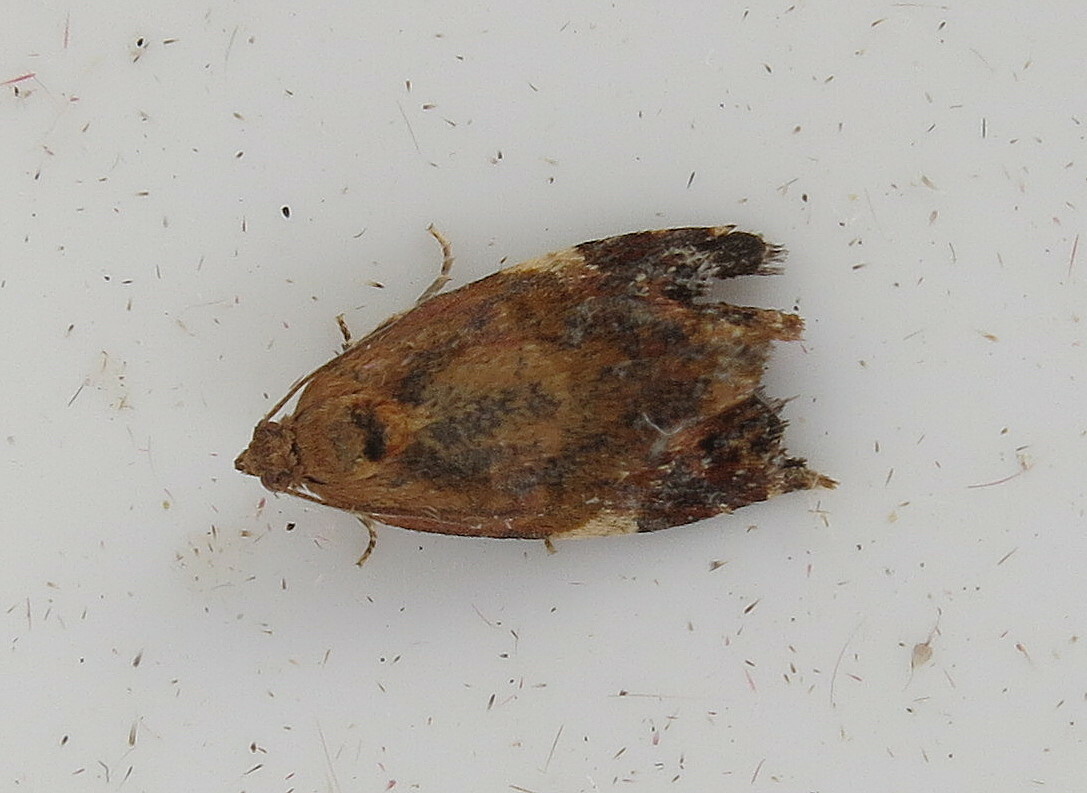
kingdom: Animalia
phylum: Arthropoda
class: Insecta
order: Lepidoptera
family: Tortricidae
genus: Ditula
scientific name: Ditula angustiorana
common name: Red-barred tortrix
